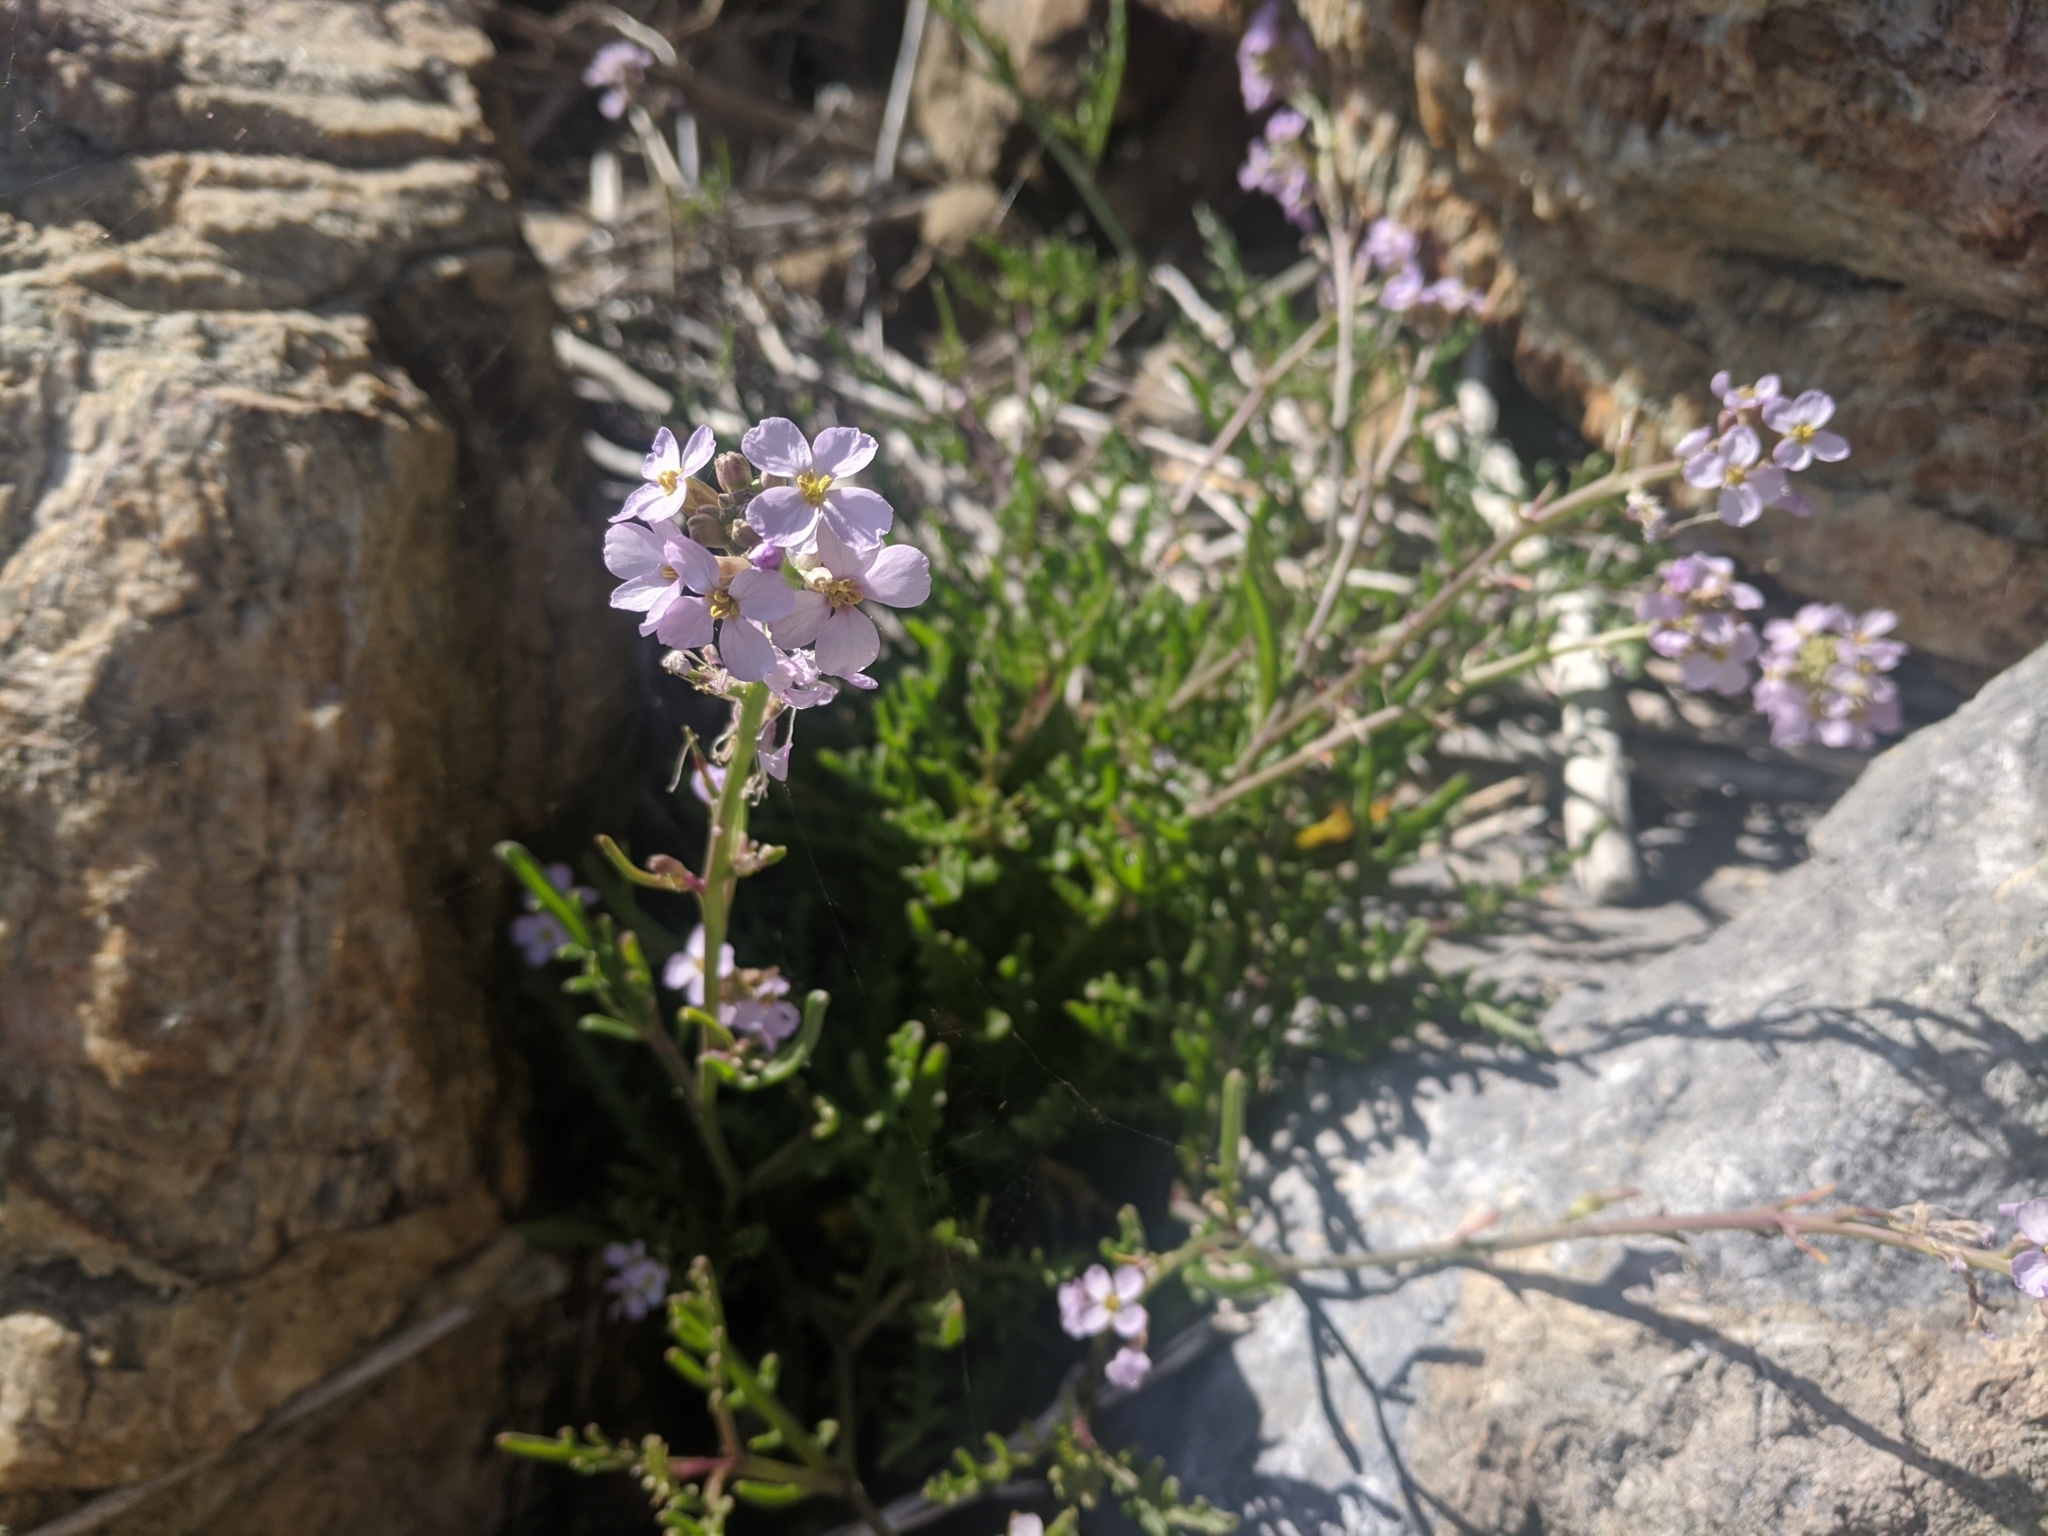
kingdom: Plantae
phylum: Tracheophyta
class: Magnoliopsida
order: Brassicales
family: Brassicaceae
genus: Cakile
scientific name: Cakile maritima
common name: Sea rocket
